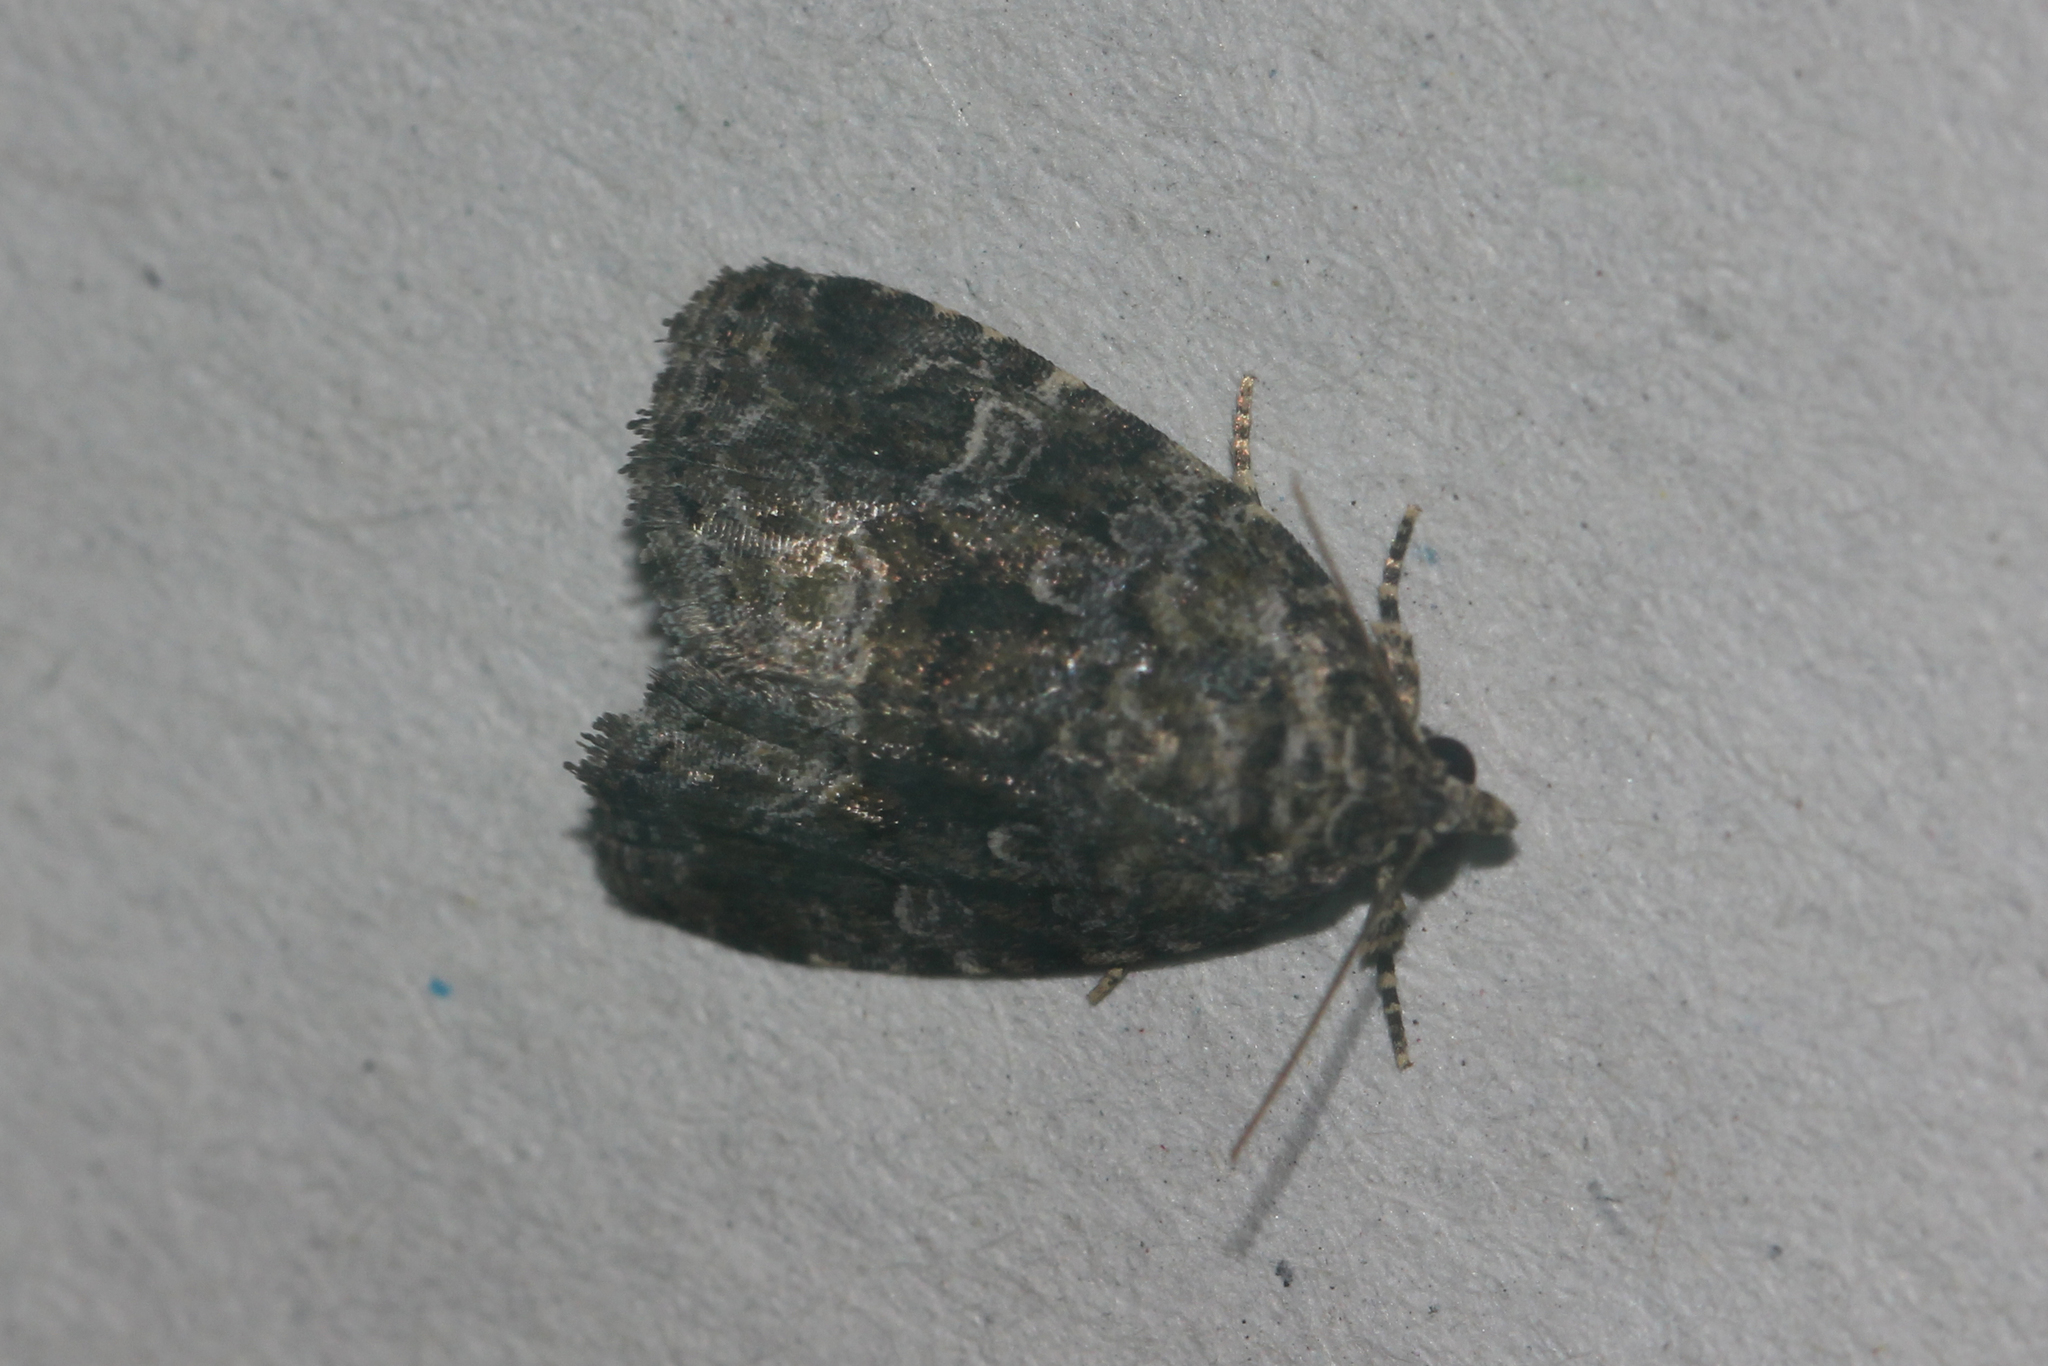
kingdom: Animalia
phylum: Arthropoda
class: Insecta
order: Lepidoptera
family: Noctuidae
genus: Protodeltote
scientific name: Protodeltote muscosula
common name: Large mossy glyph
